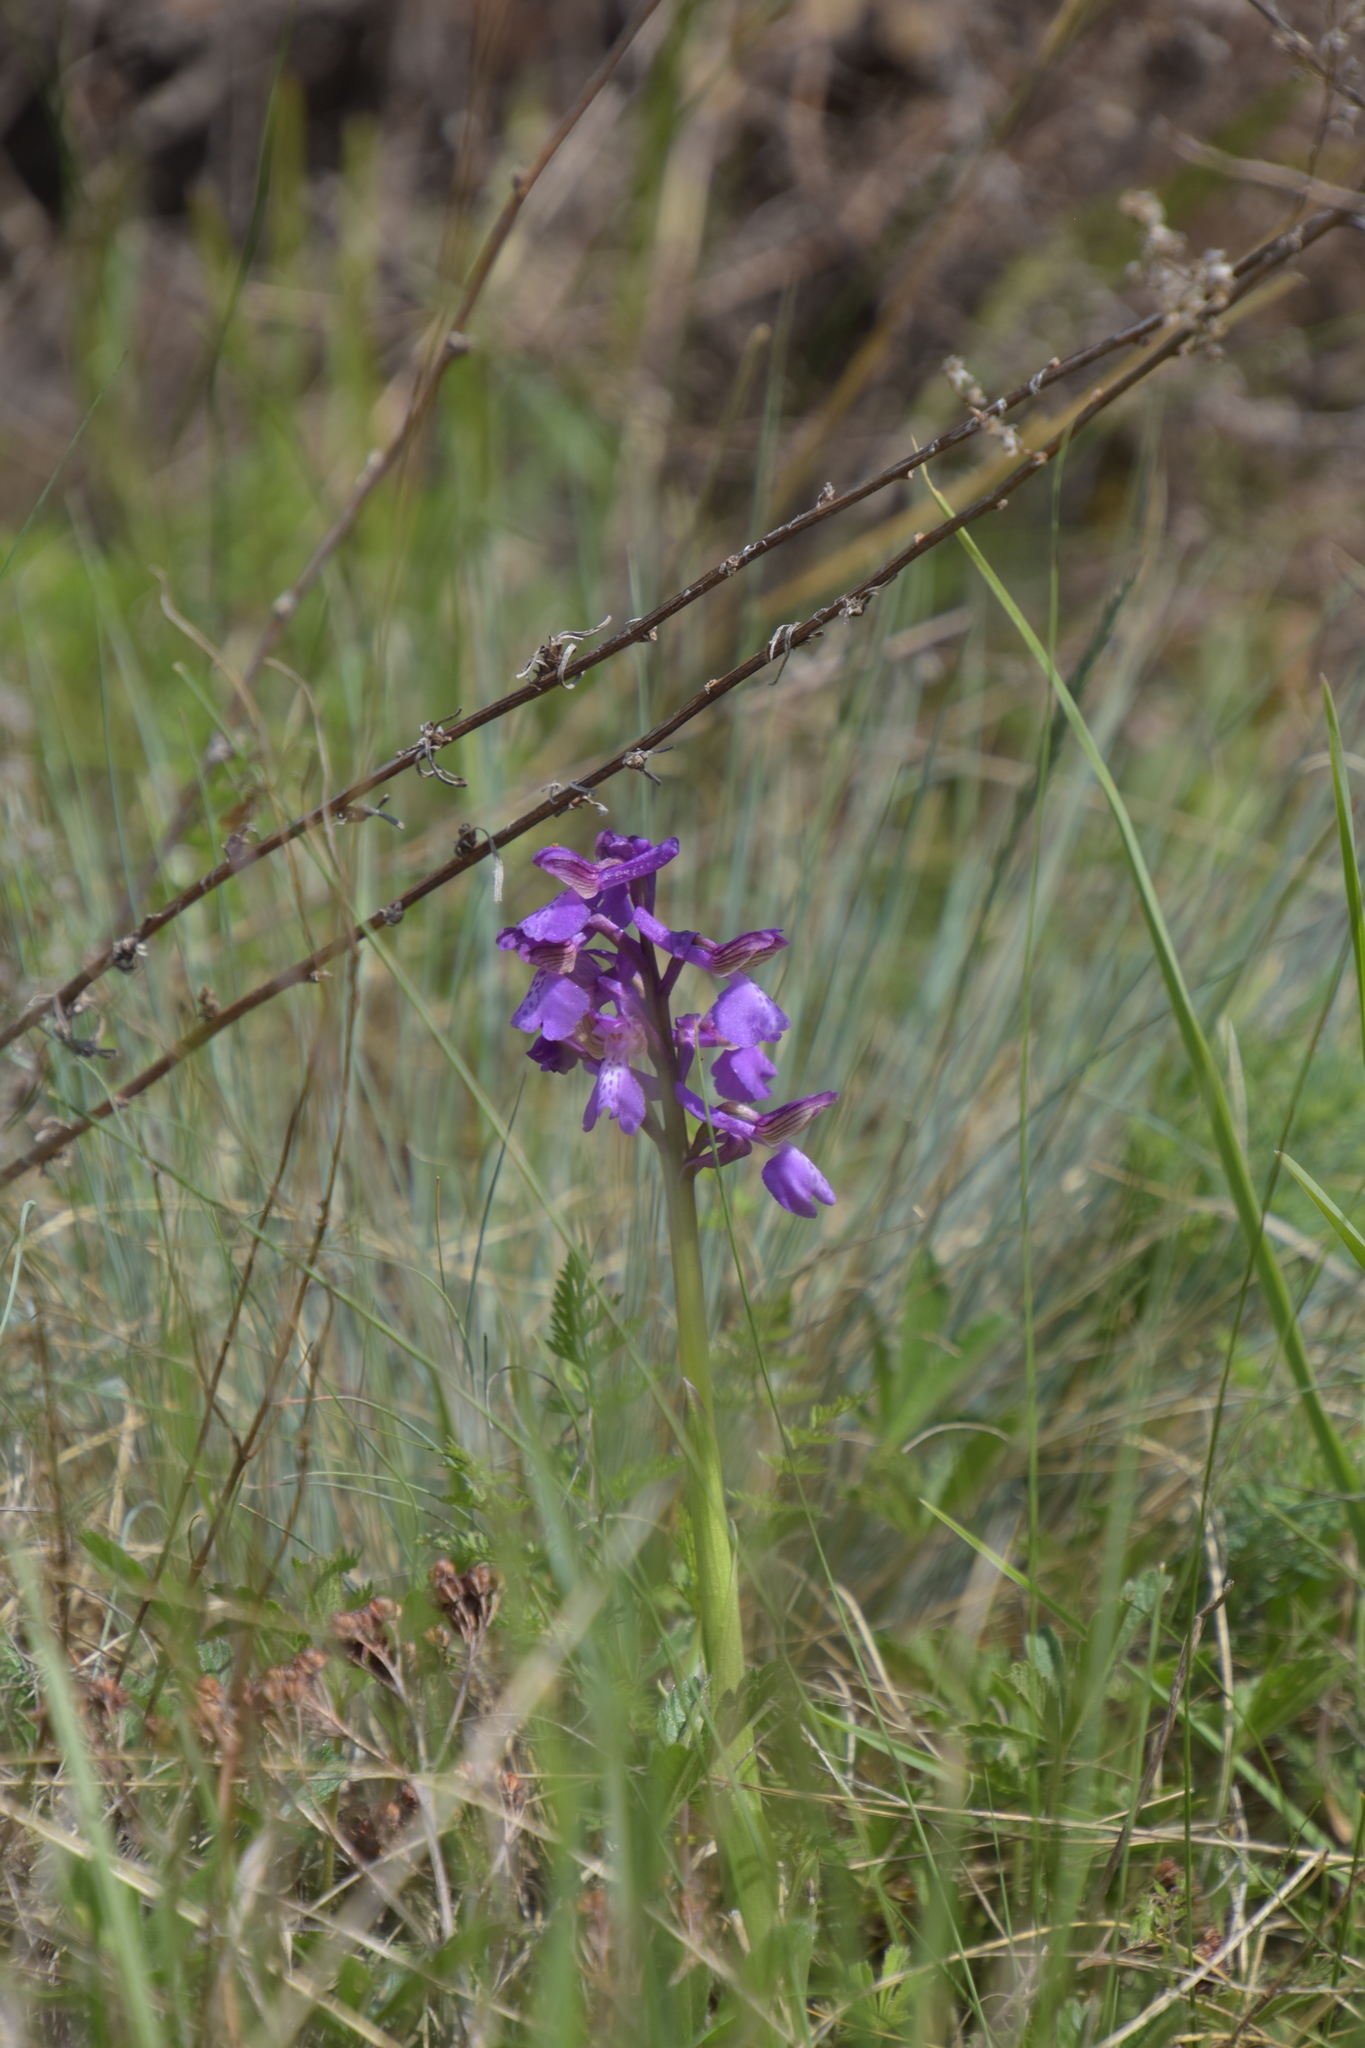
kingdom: Plantae
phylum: Tracheophyta
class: Liliopsida
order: Asparagales
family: Orchidaceae
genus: Anacamptis
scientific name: Anacamptis morio
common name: Green-winged orchid
